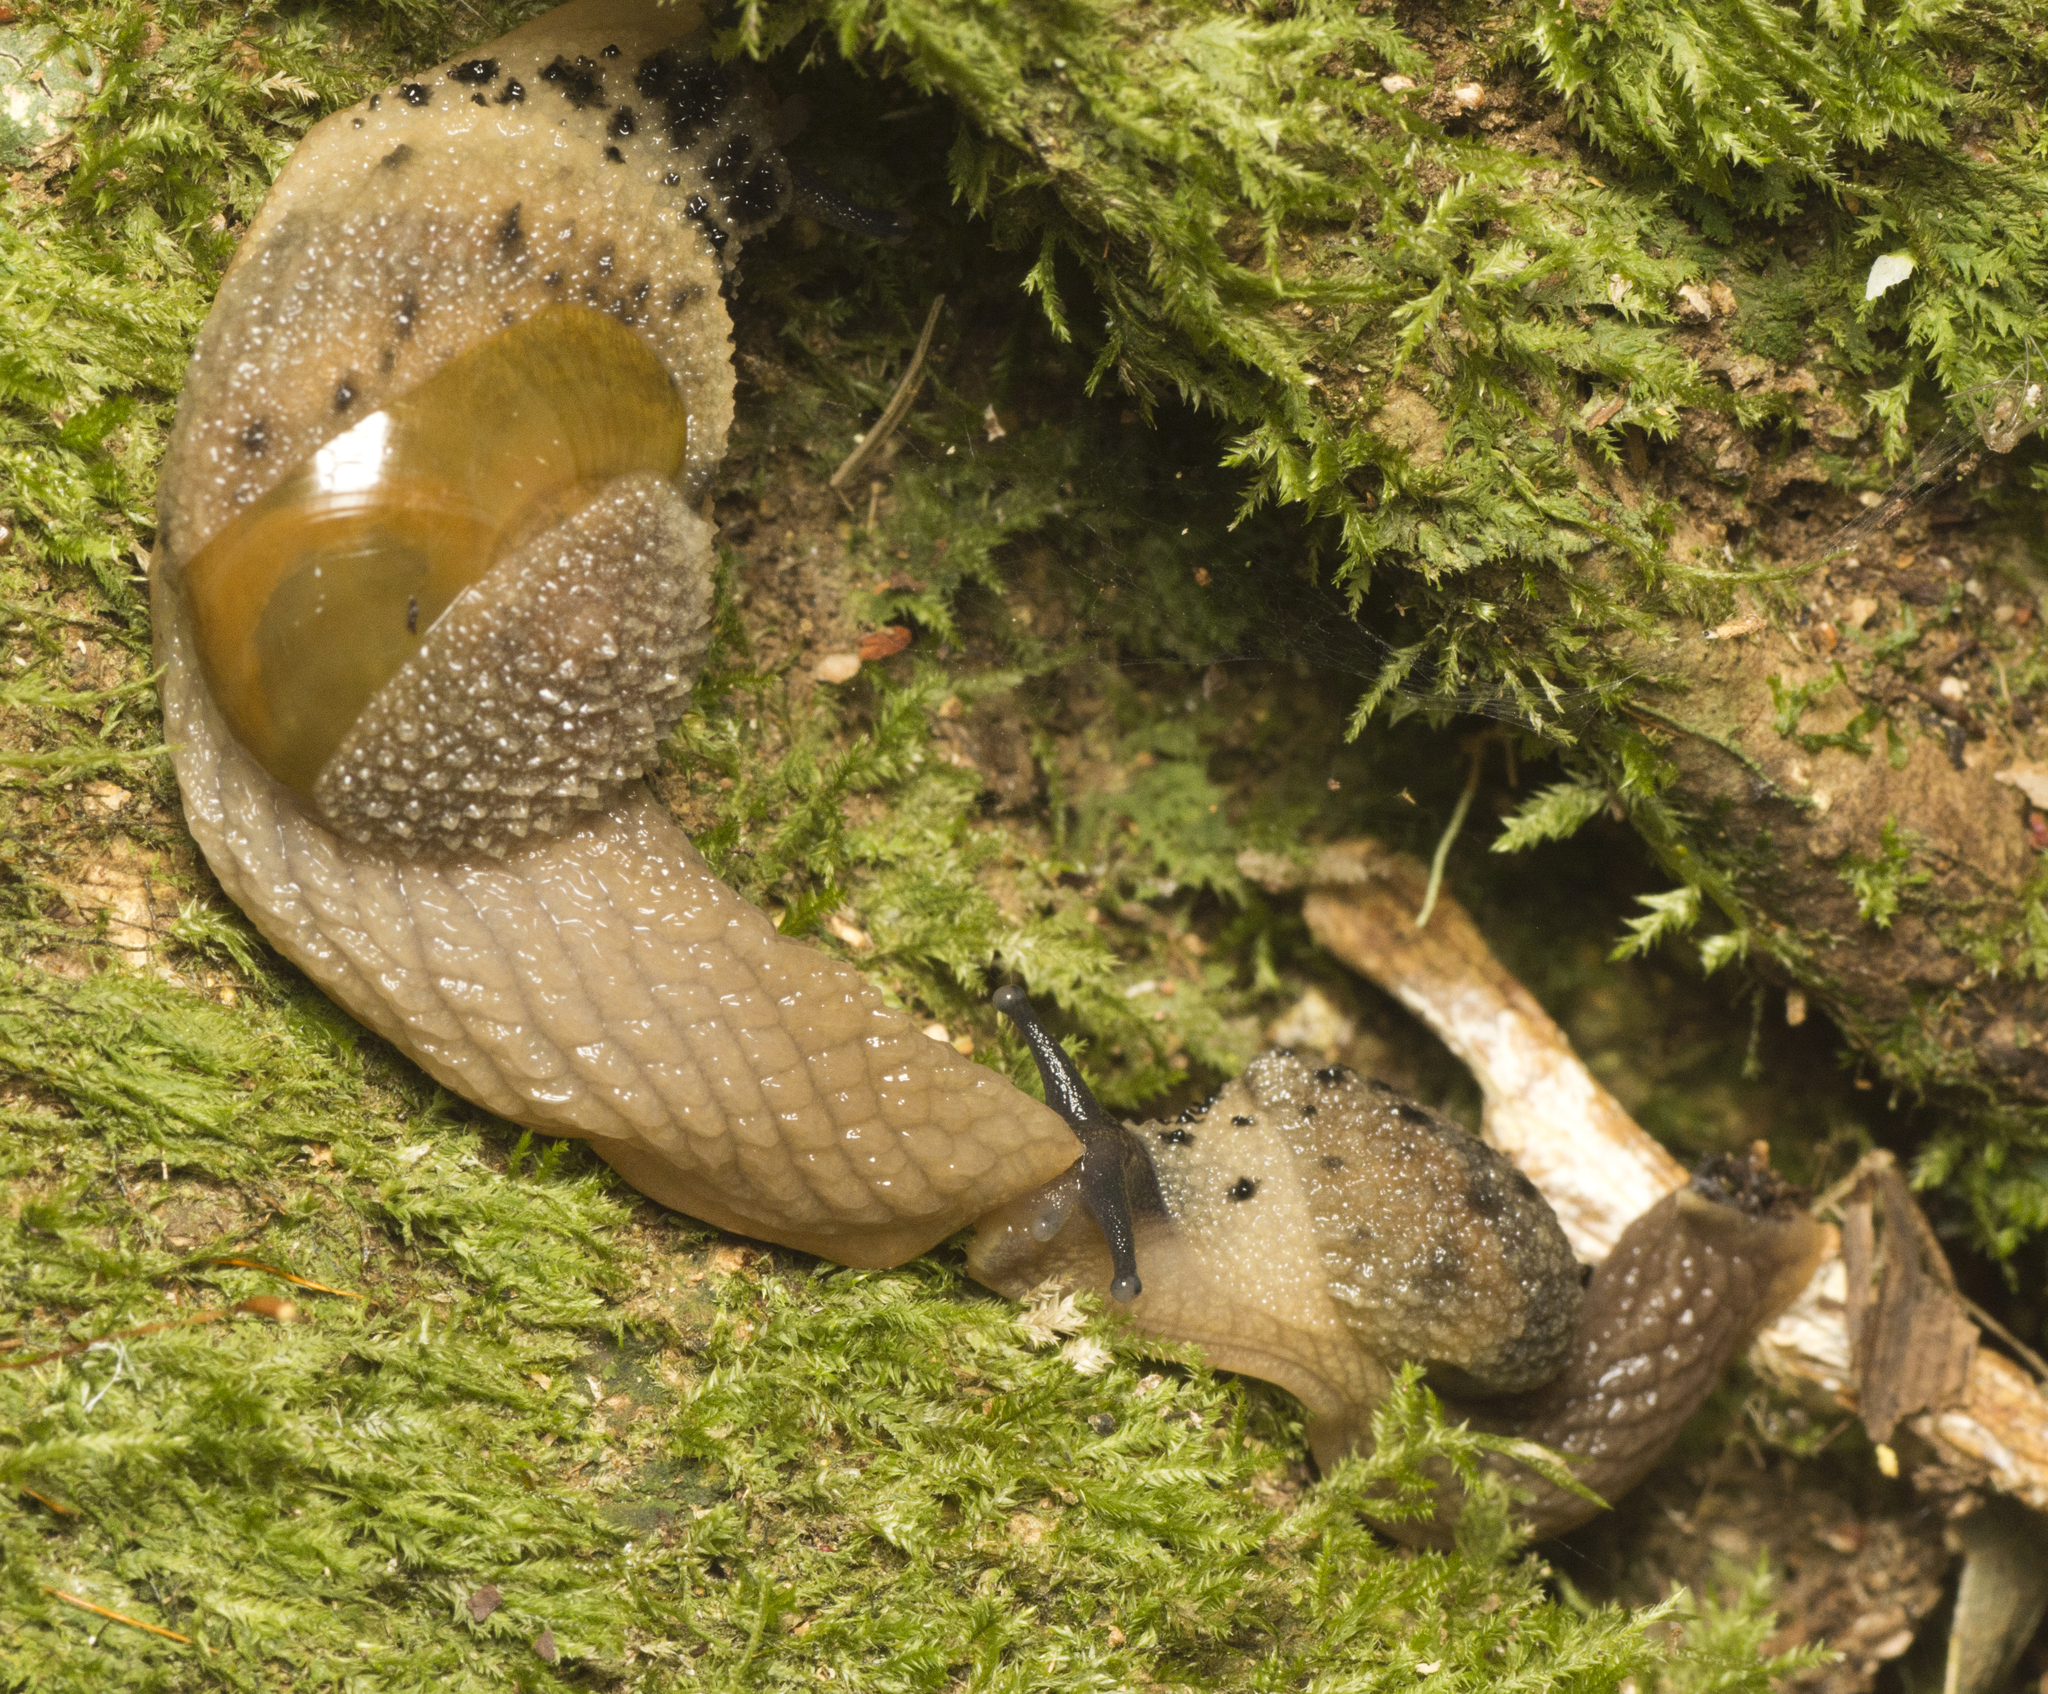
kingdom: Animalia
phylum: Mollusca
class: Gastropoda
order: Stylommatophora
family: Helicarionidae
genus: Stanisicarion
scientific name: Stanisicarion aquila
